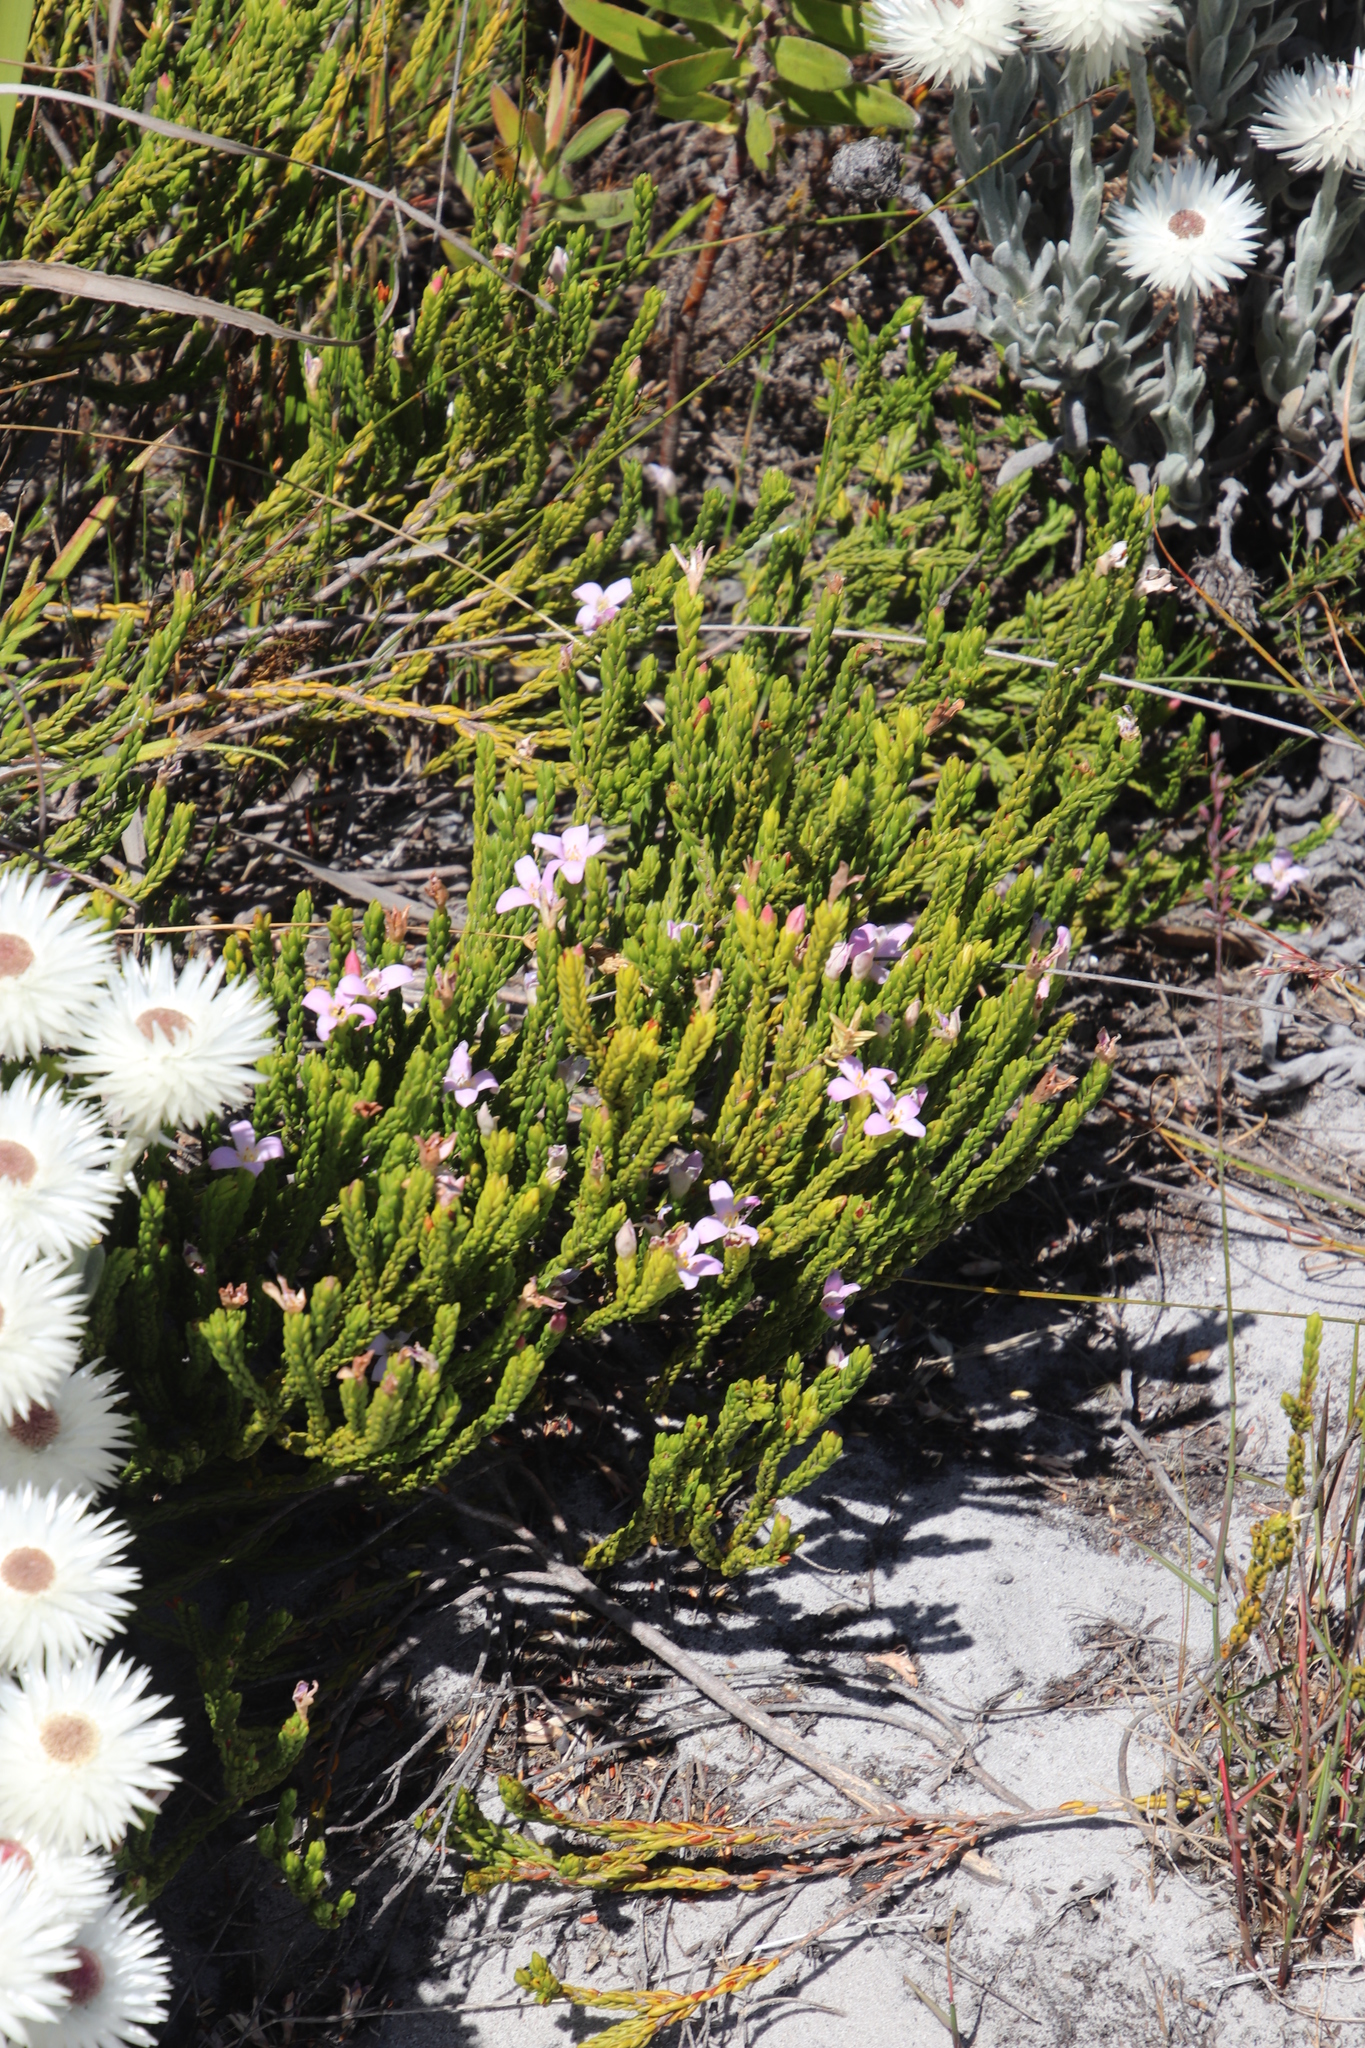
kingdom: Plantae
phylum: Tracheophyta
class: Magnoliopsida
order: Malvales
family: Thymelaeaceae
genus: Lachnaea
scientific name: Lachnaea grandiflora
